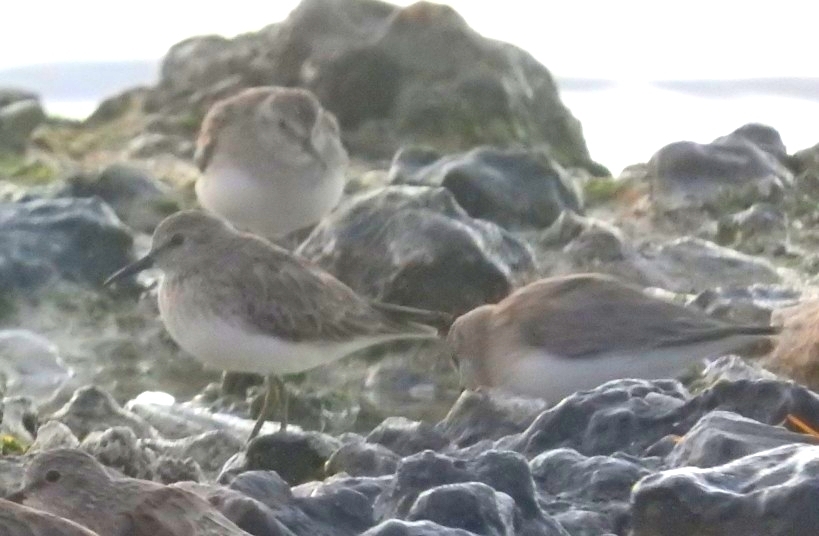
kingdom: Animalia
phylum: Chordata
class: Aves
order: Charadriiformes
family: Scolopacidae
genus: Calidris
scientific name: Calidris minutilla
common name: Least sandpiper
